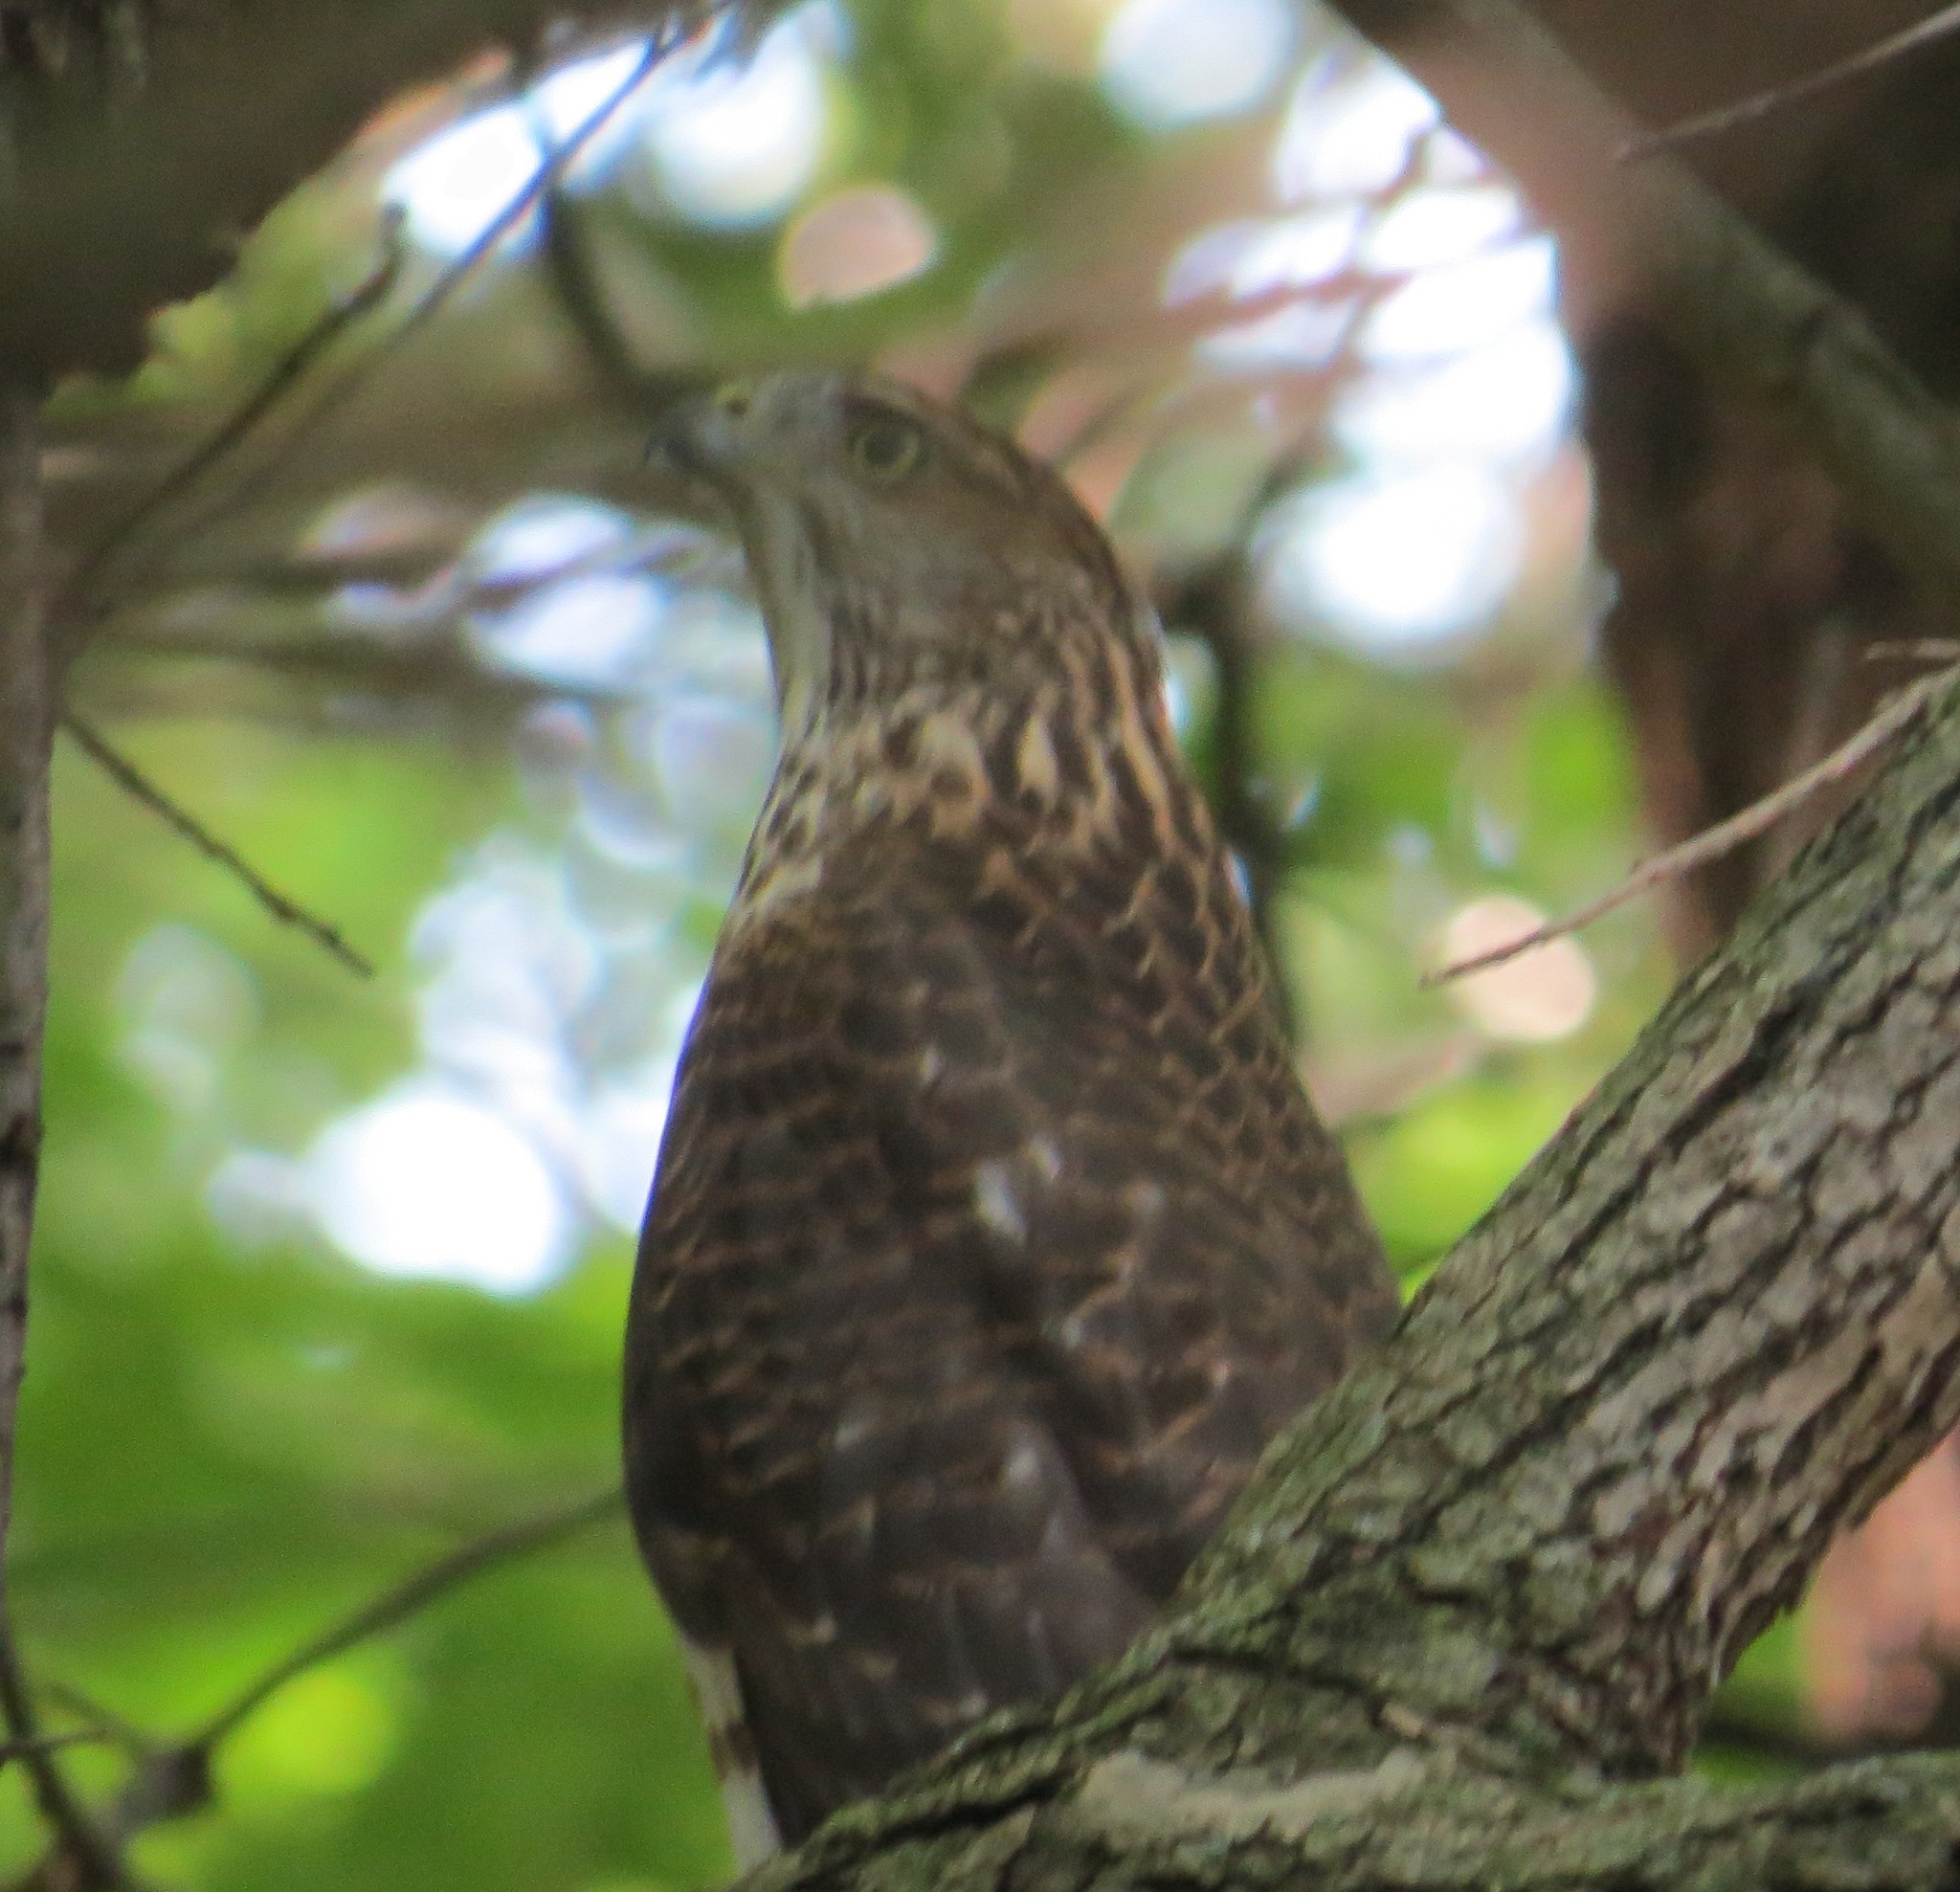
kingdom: Animalia
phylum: Chordata
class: Aves
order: Accipitriformes
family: Accipitridae
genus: Accipiter
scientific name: Accipiter cooperii
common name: Cooper's hawk
